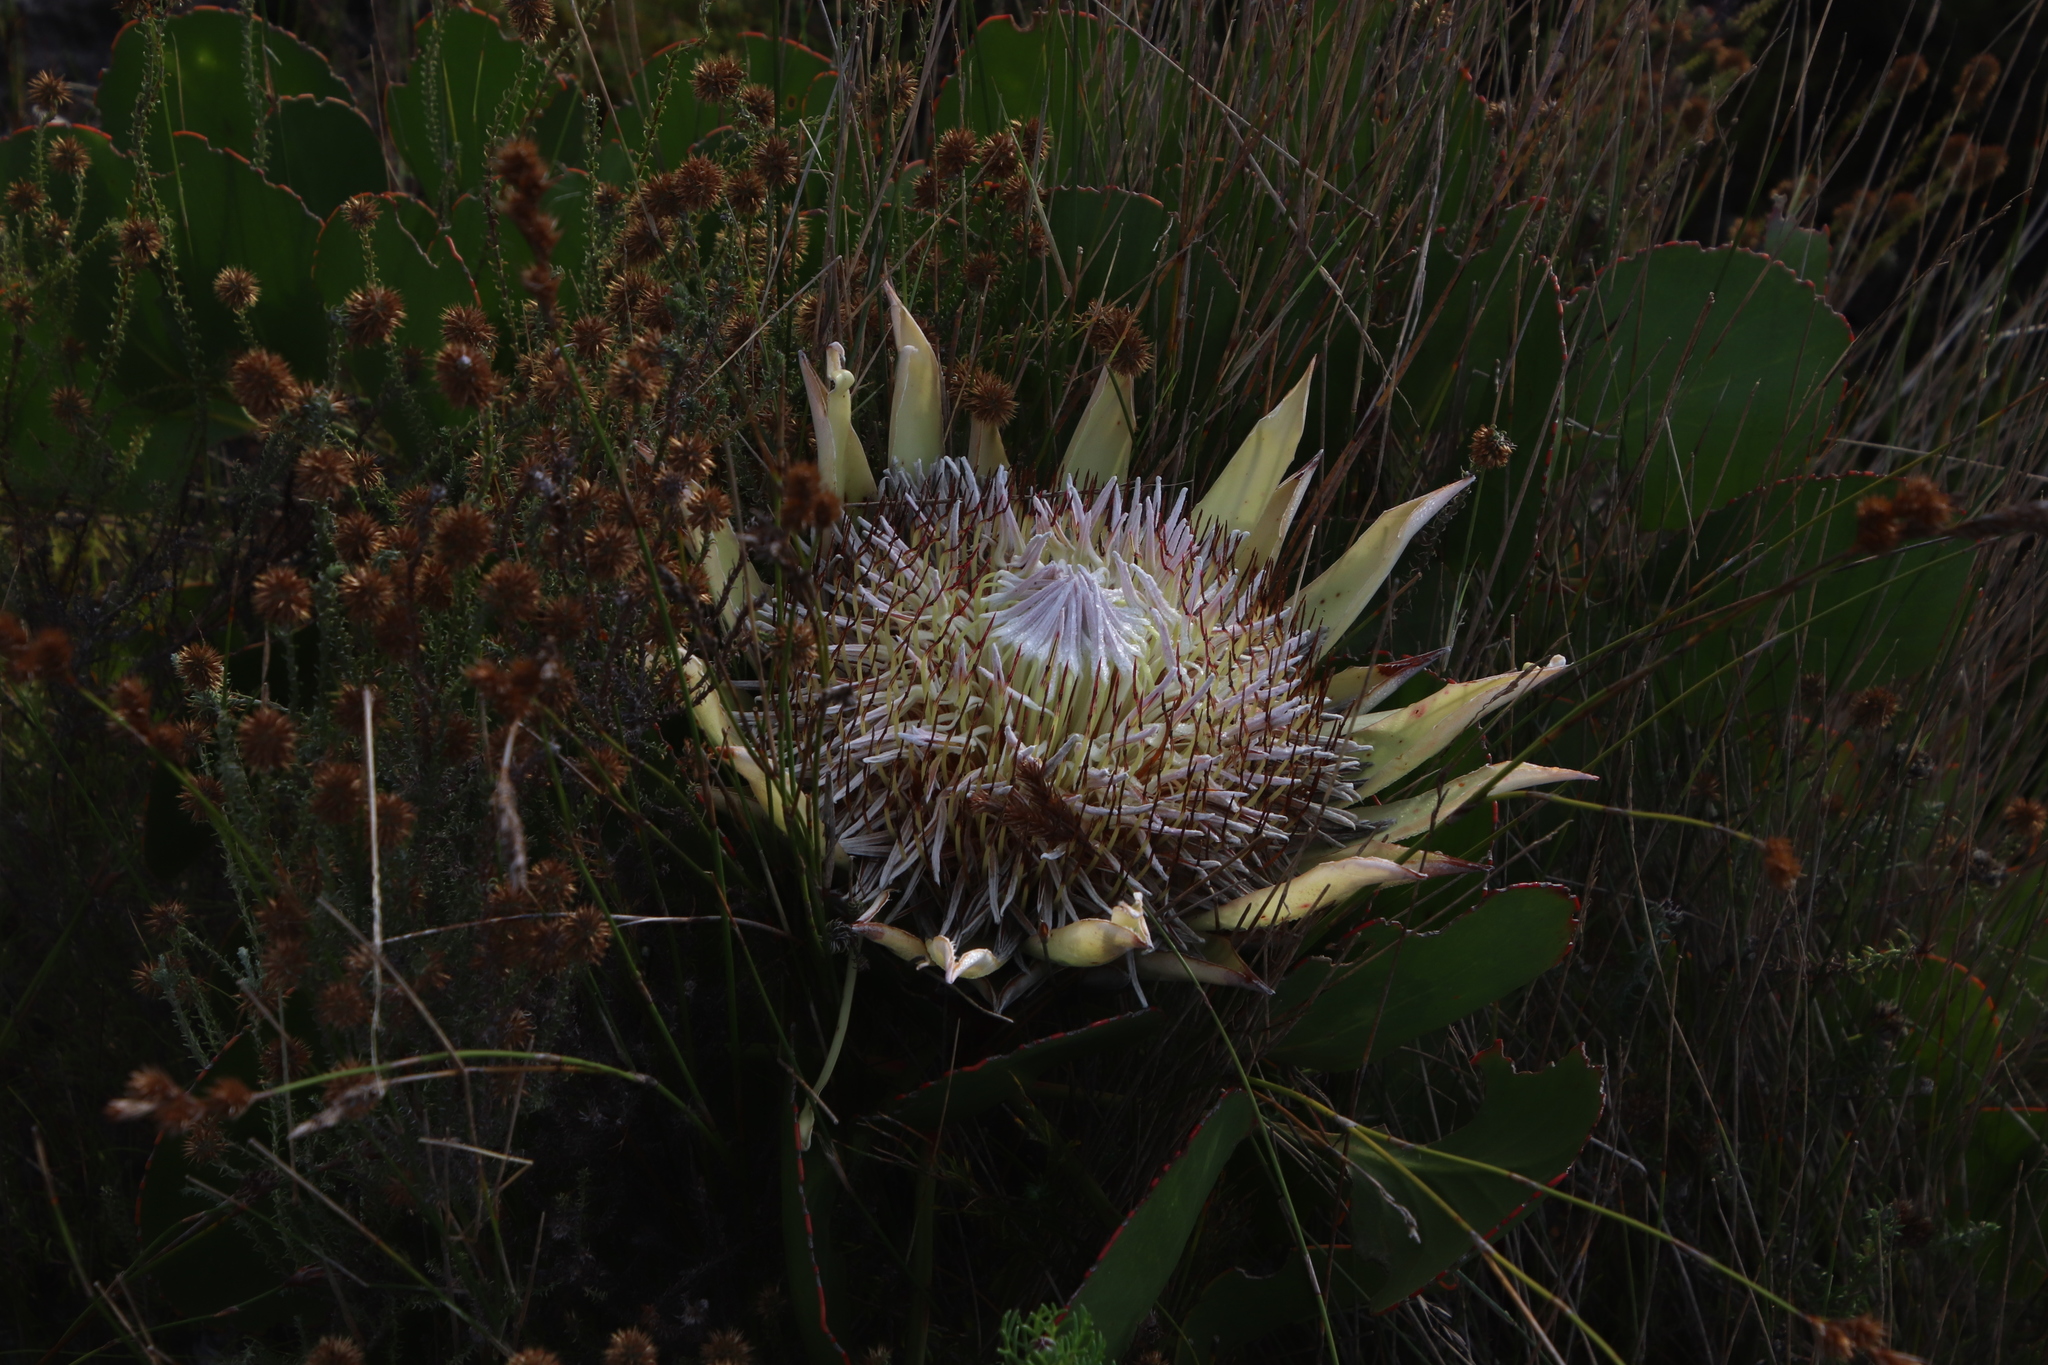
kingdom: Plantae
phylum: Tracheophyta
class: Magnoliopsida
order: Proteales
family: Proteaceae
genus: Protea
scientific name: Protea cynaroides
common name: King protea
